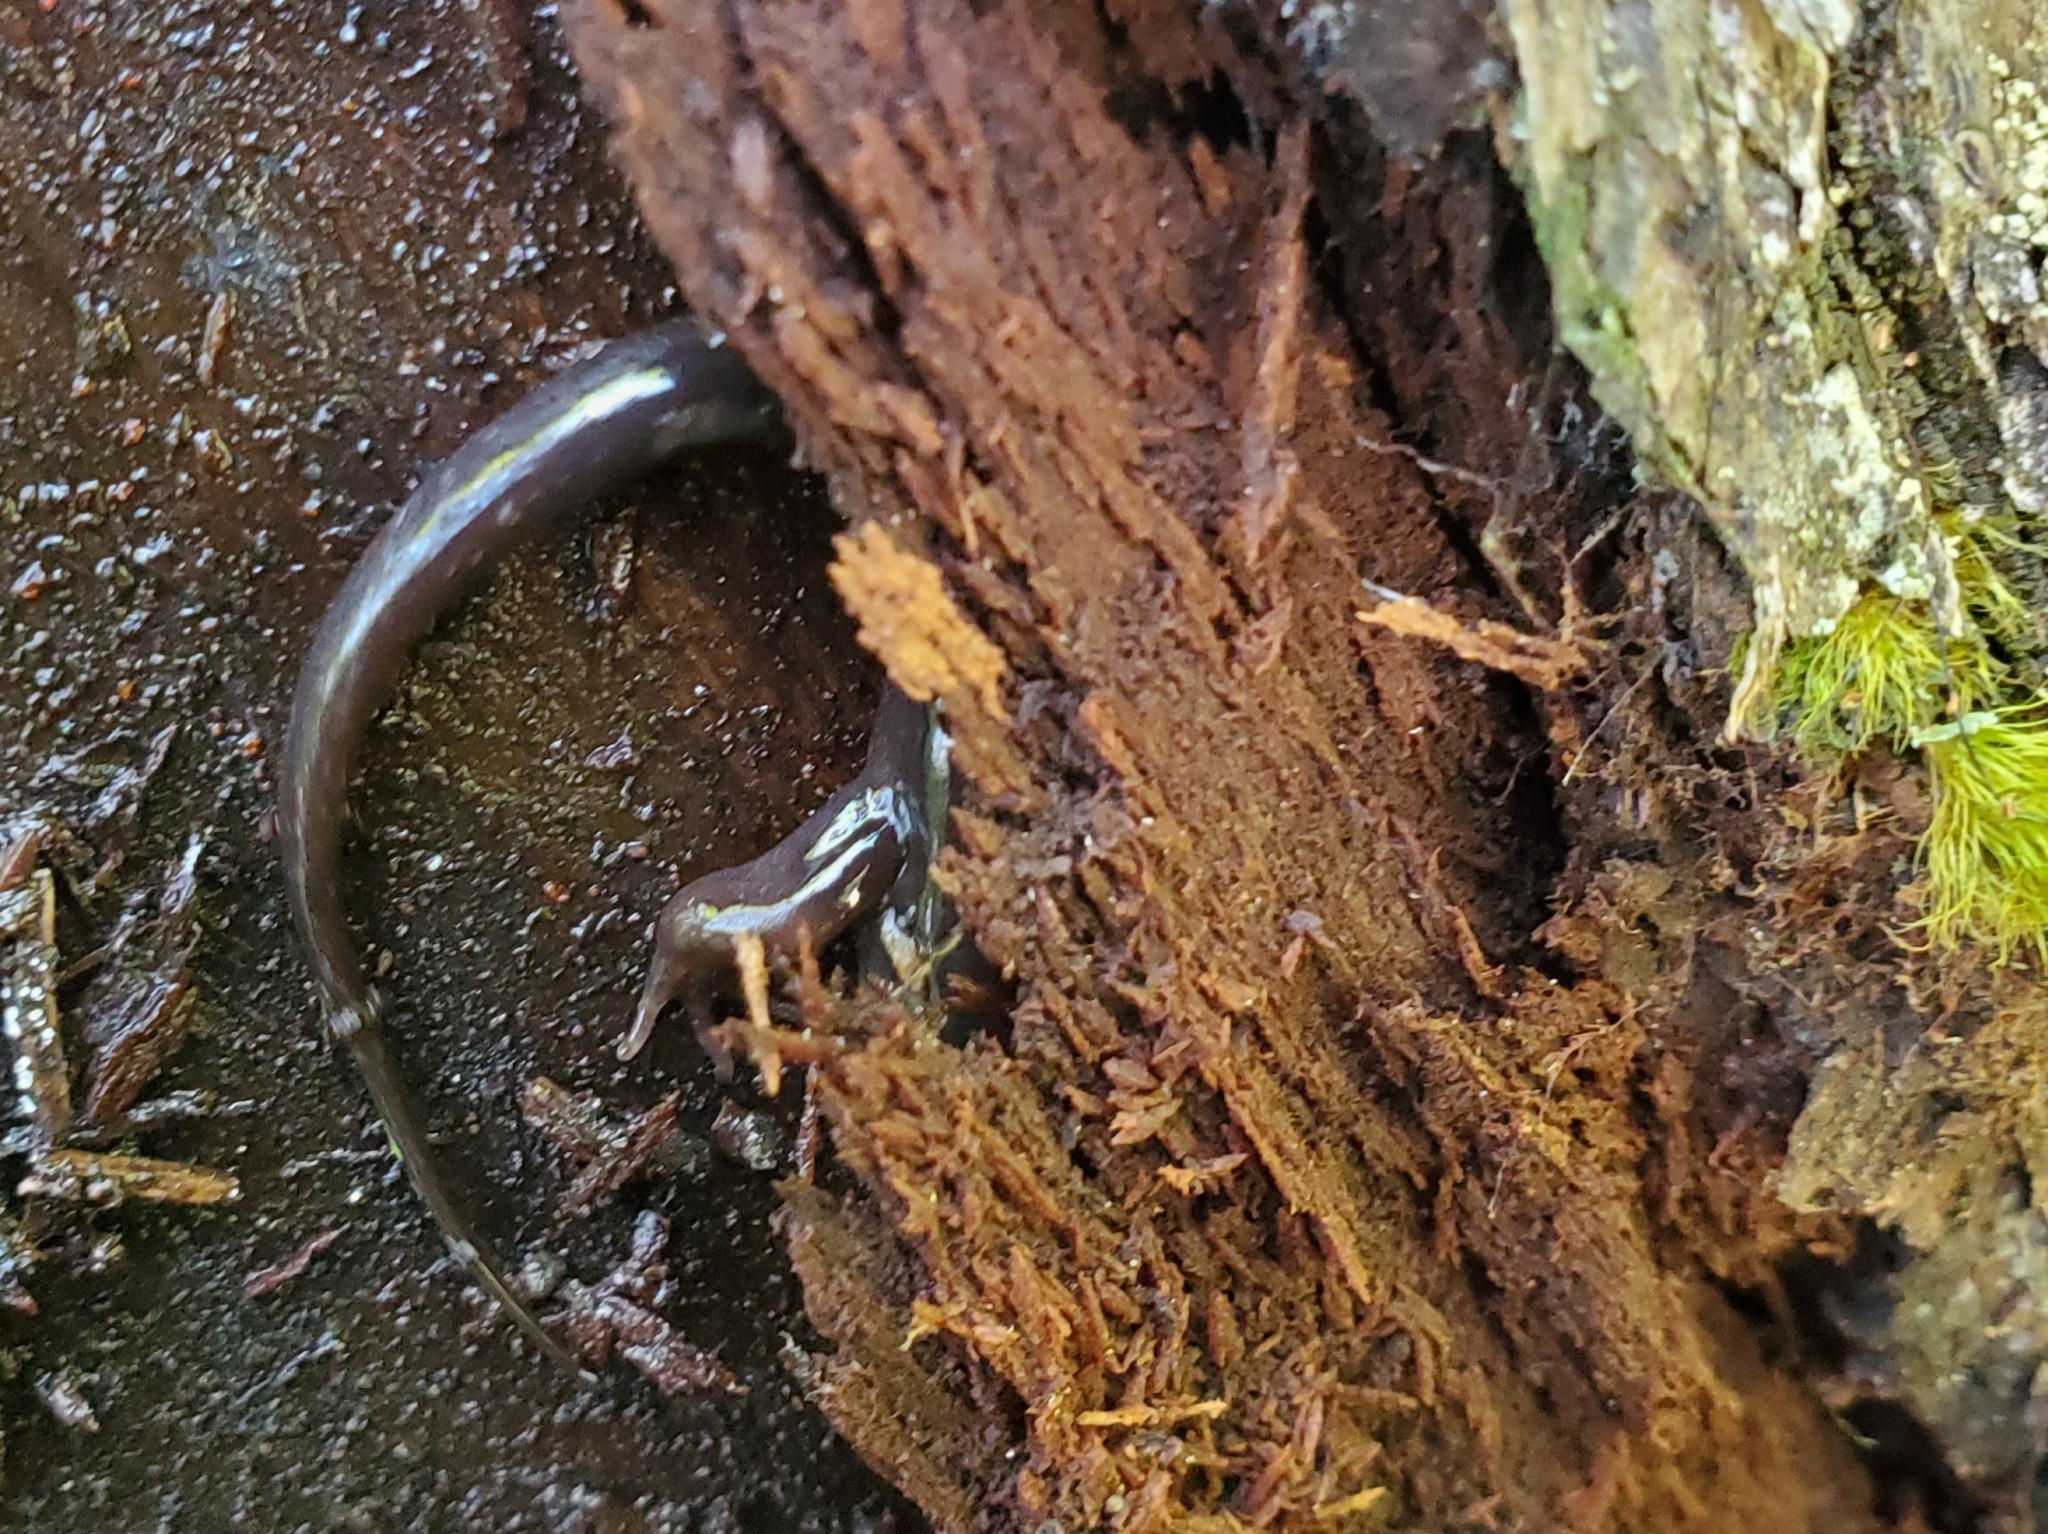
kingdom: Animalia
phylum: Chordata
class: Amphibia
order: Caudata
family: Plethodontidae
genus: Desmognathus
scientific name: Desmognathus imitator
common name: Imitator salamander
